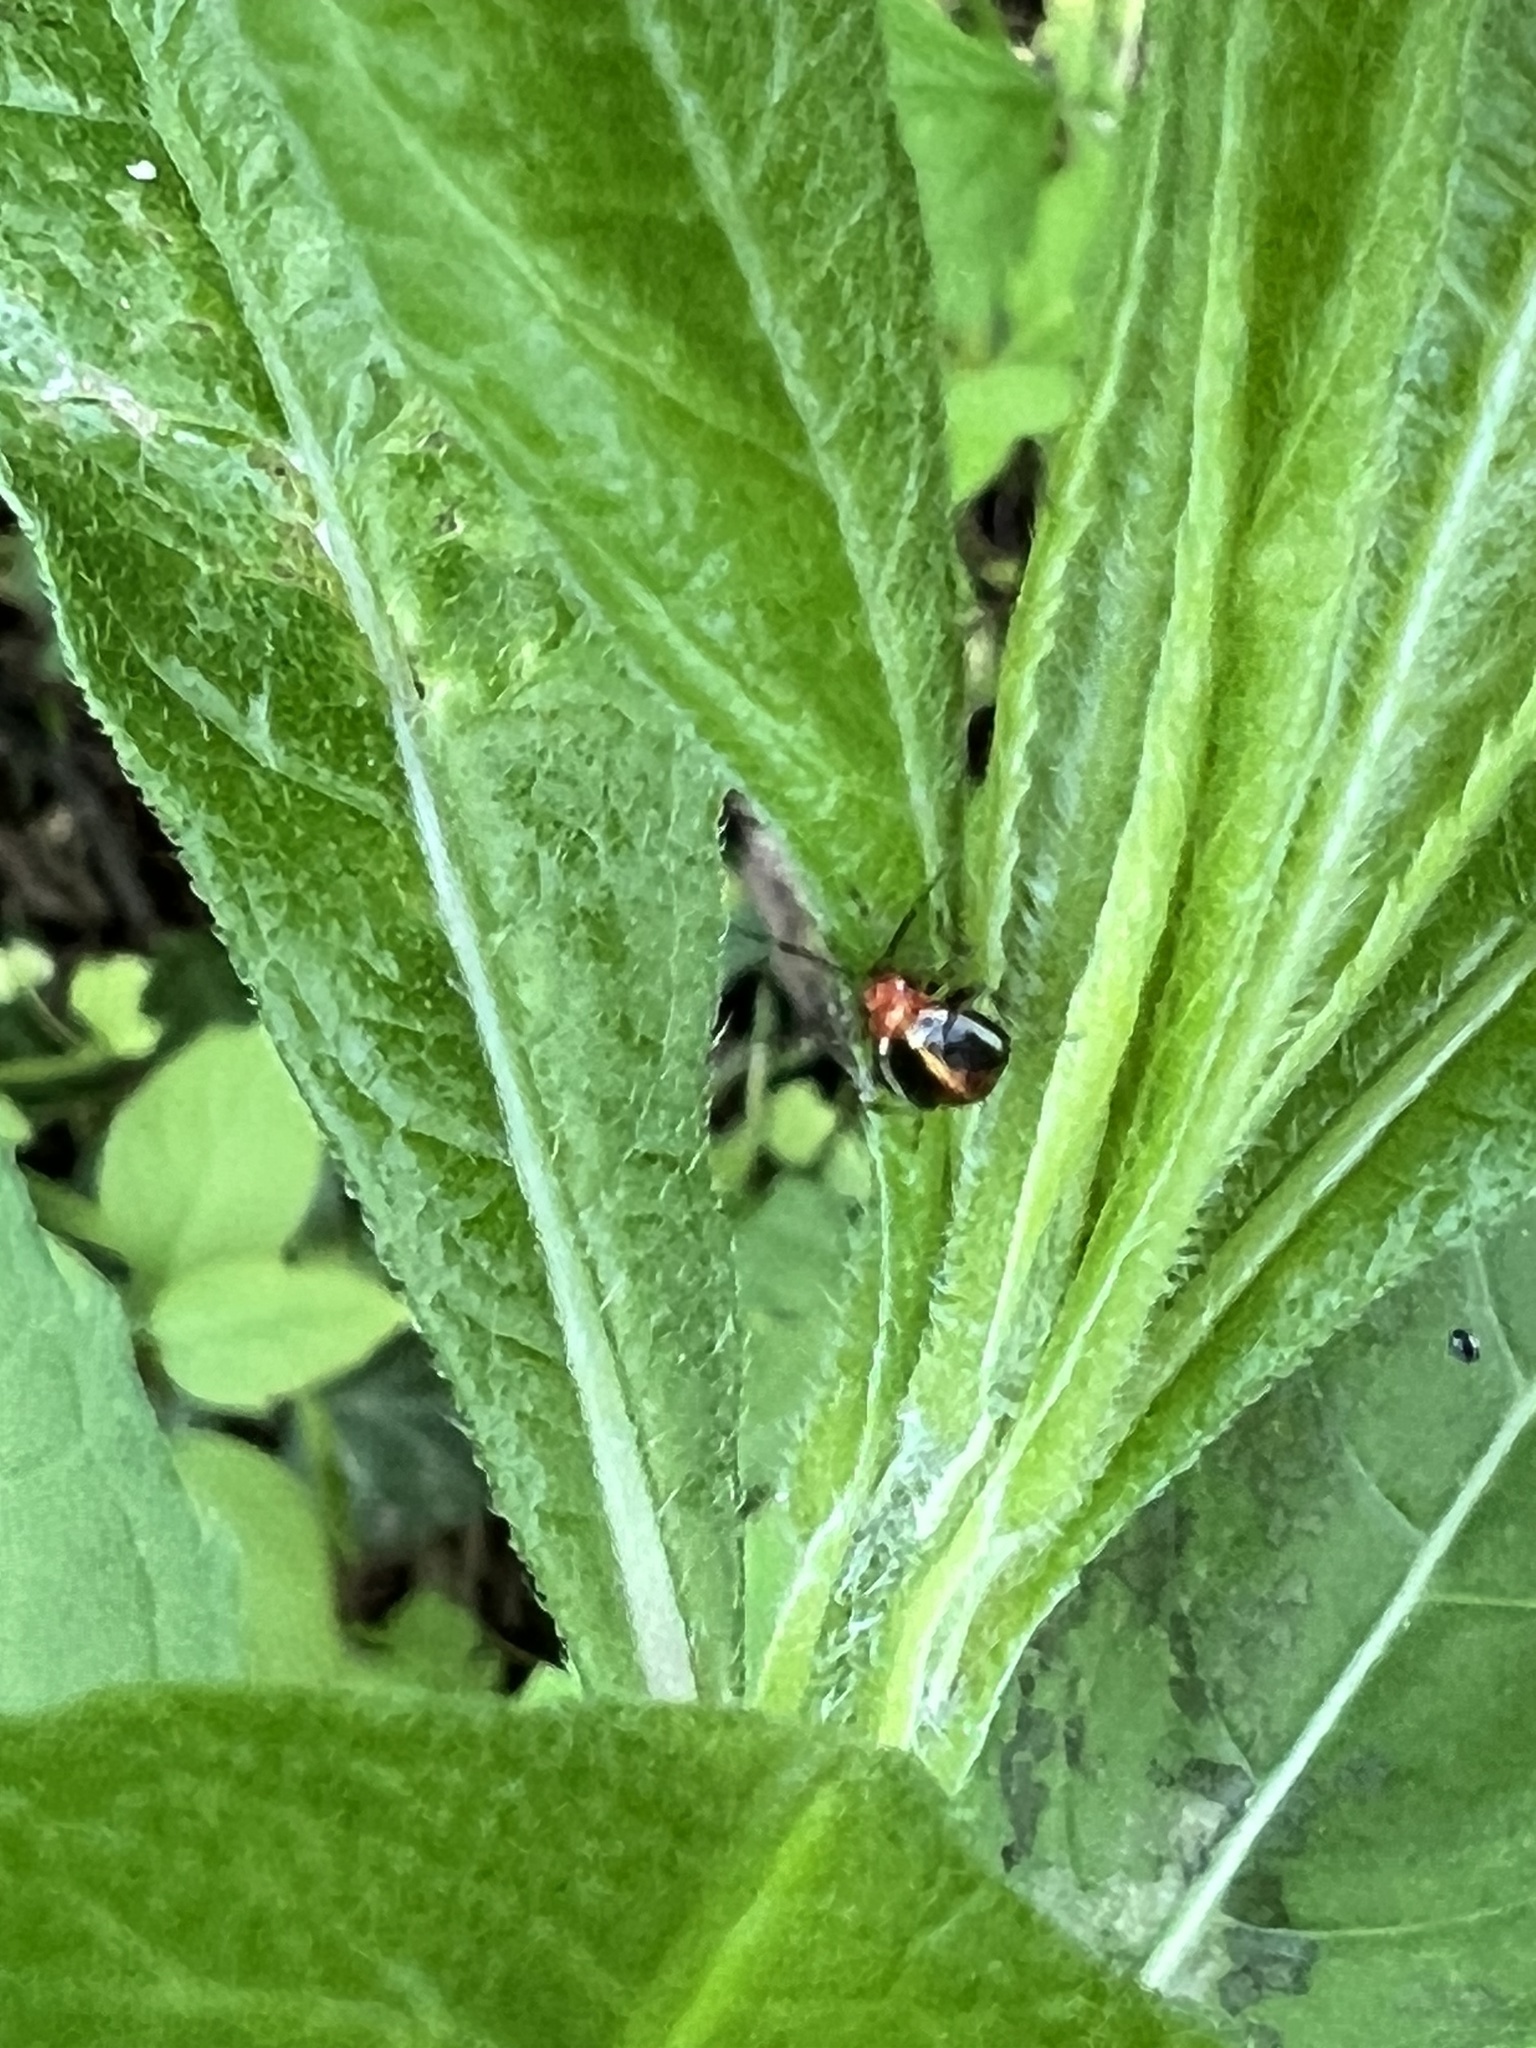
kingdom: Animalia
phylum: Arthropoda
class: Insecta
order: Hemiptera
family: Miridae
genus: Poecilocapsus
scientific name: Poecilocapsus lineatus
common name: Four-lined plant bug
